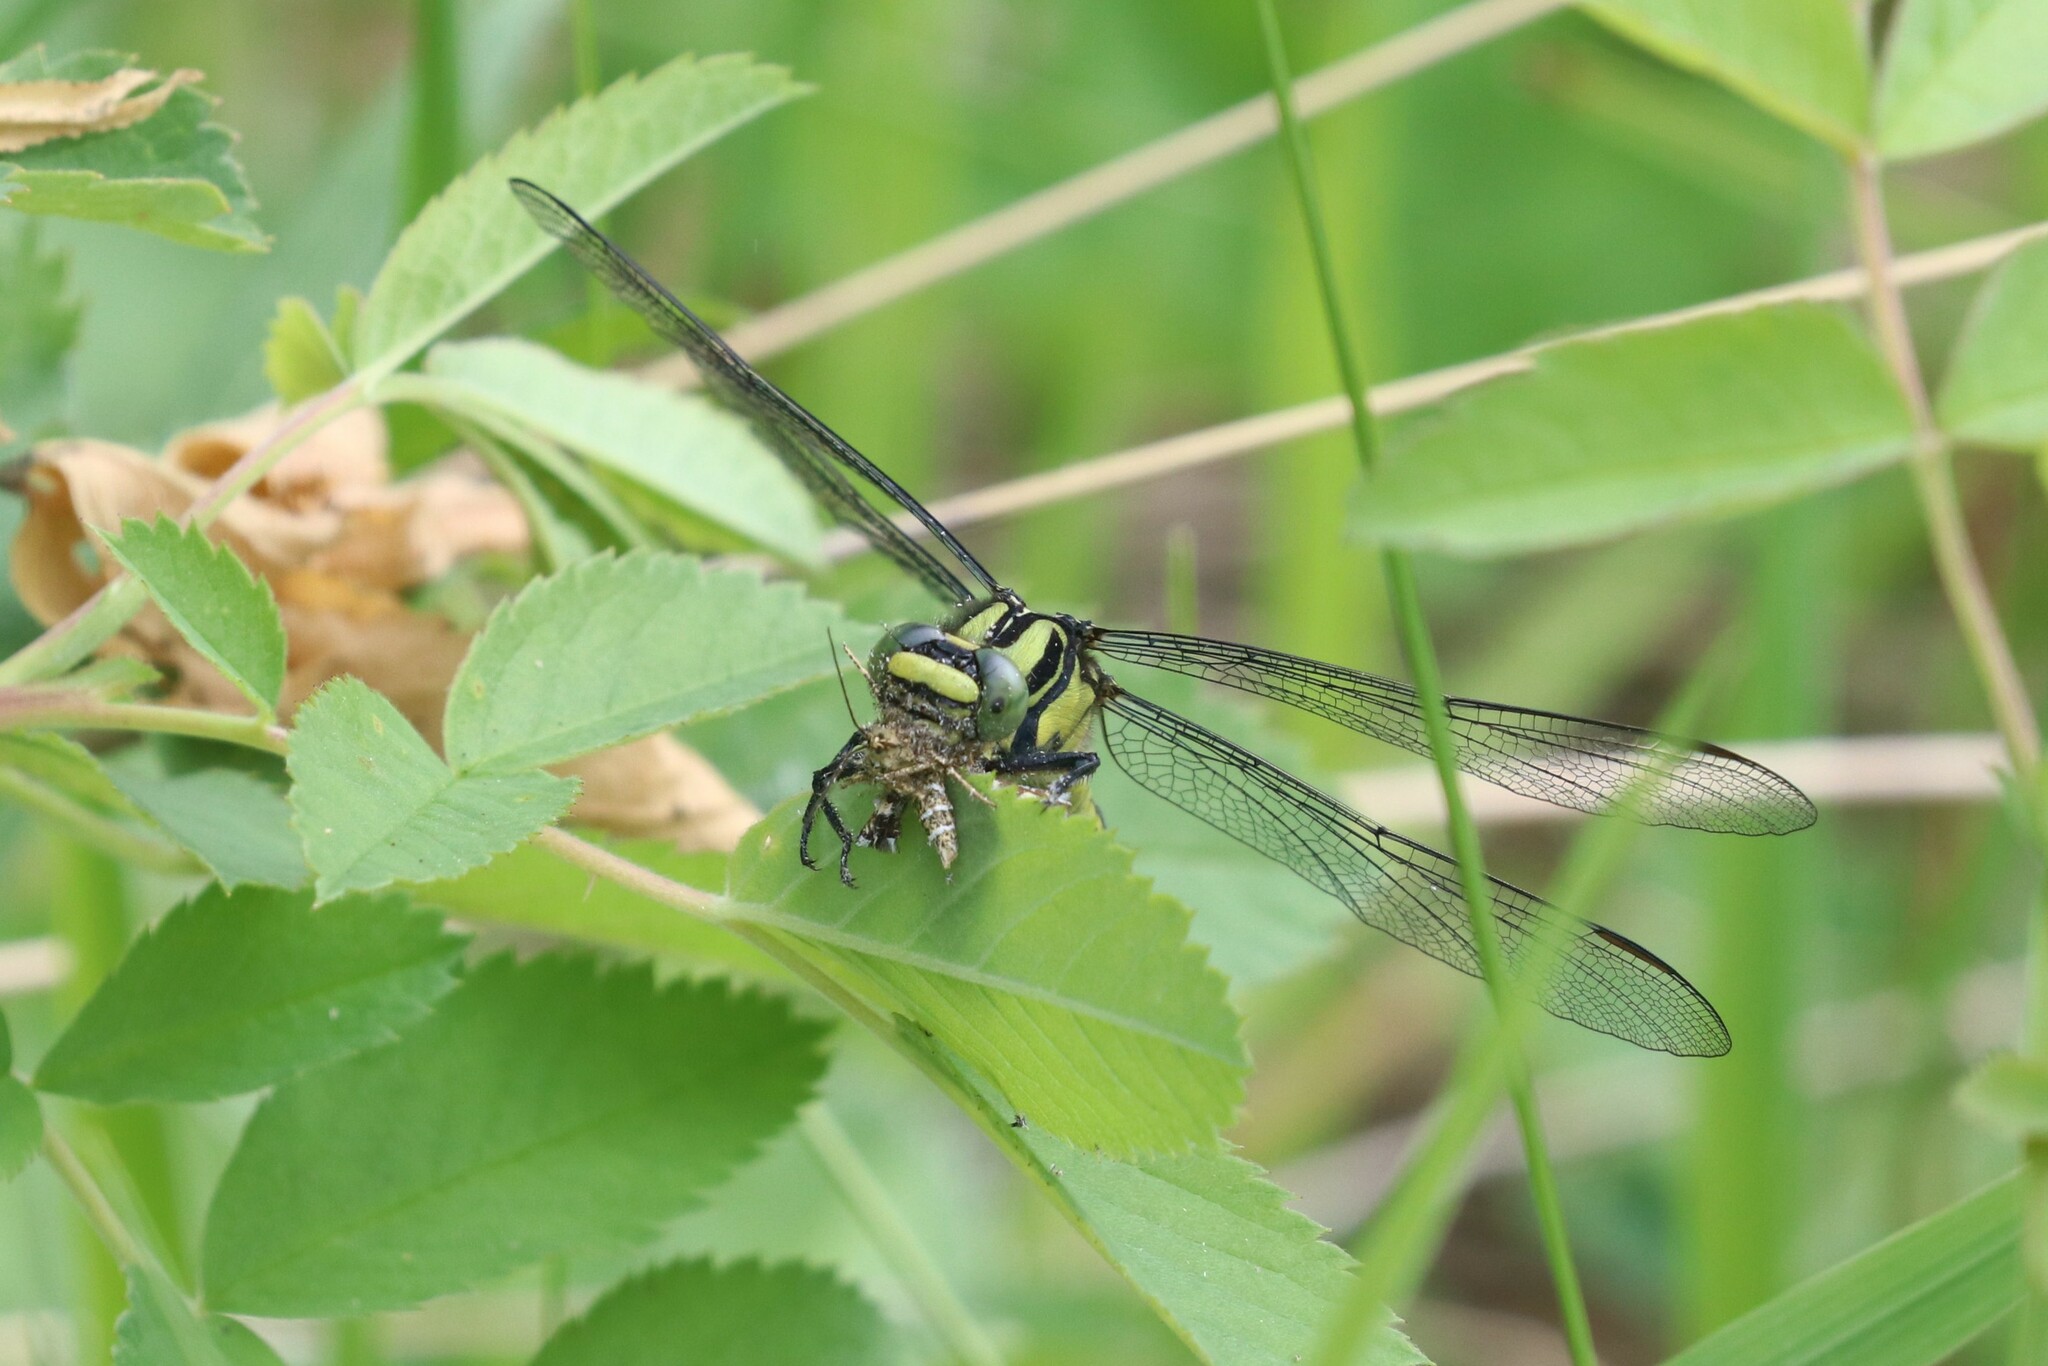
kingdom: Animalia
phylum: Arthropoda
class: Insecta
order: Odonata
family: Gomphidae
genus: Gomphus
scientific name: Gomphus vulgatissimus
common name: Club-tailed dragonfly
